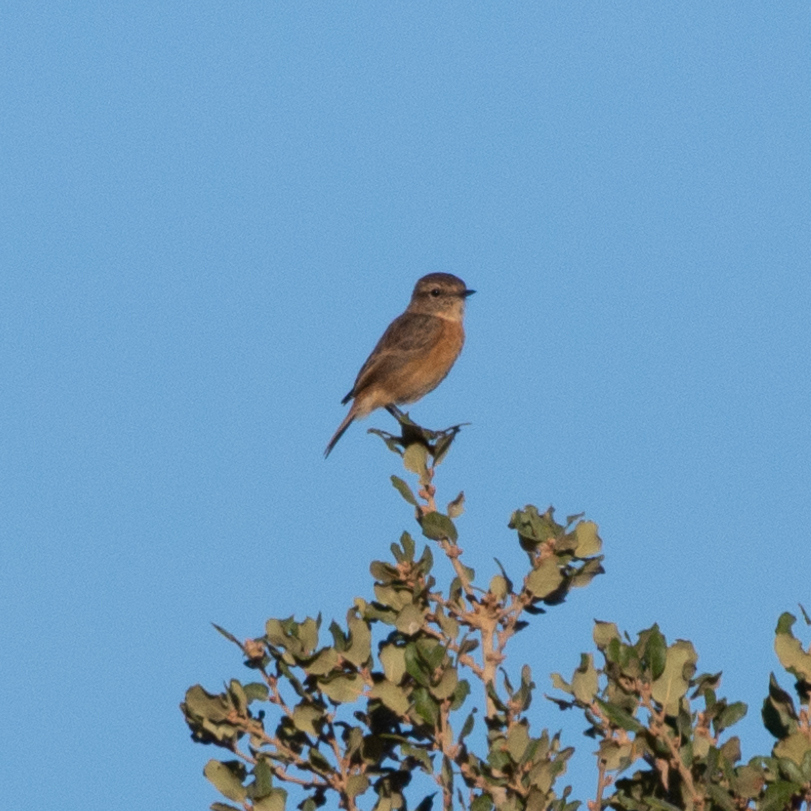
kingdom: Animalia
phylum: Chordata
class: Aves
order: Passeriformes
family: Muscicapidae
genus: Saxicola
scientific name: Saxicola rubicola
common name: European stonechat
